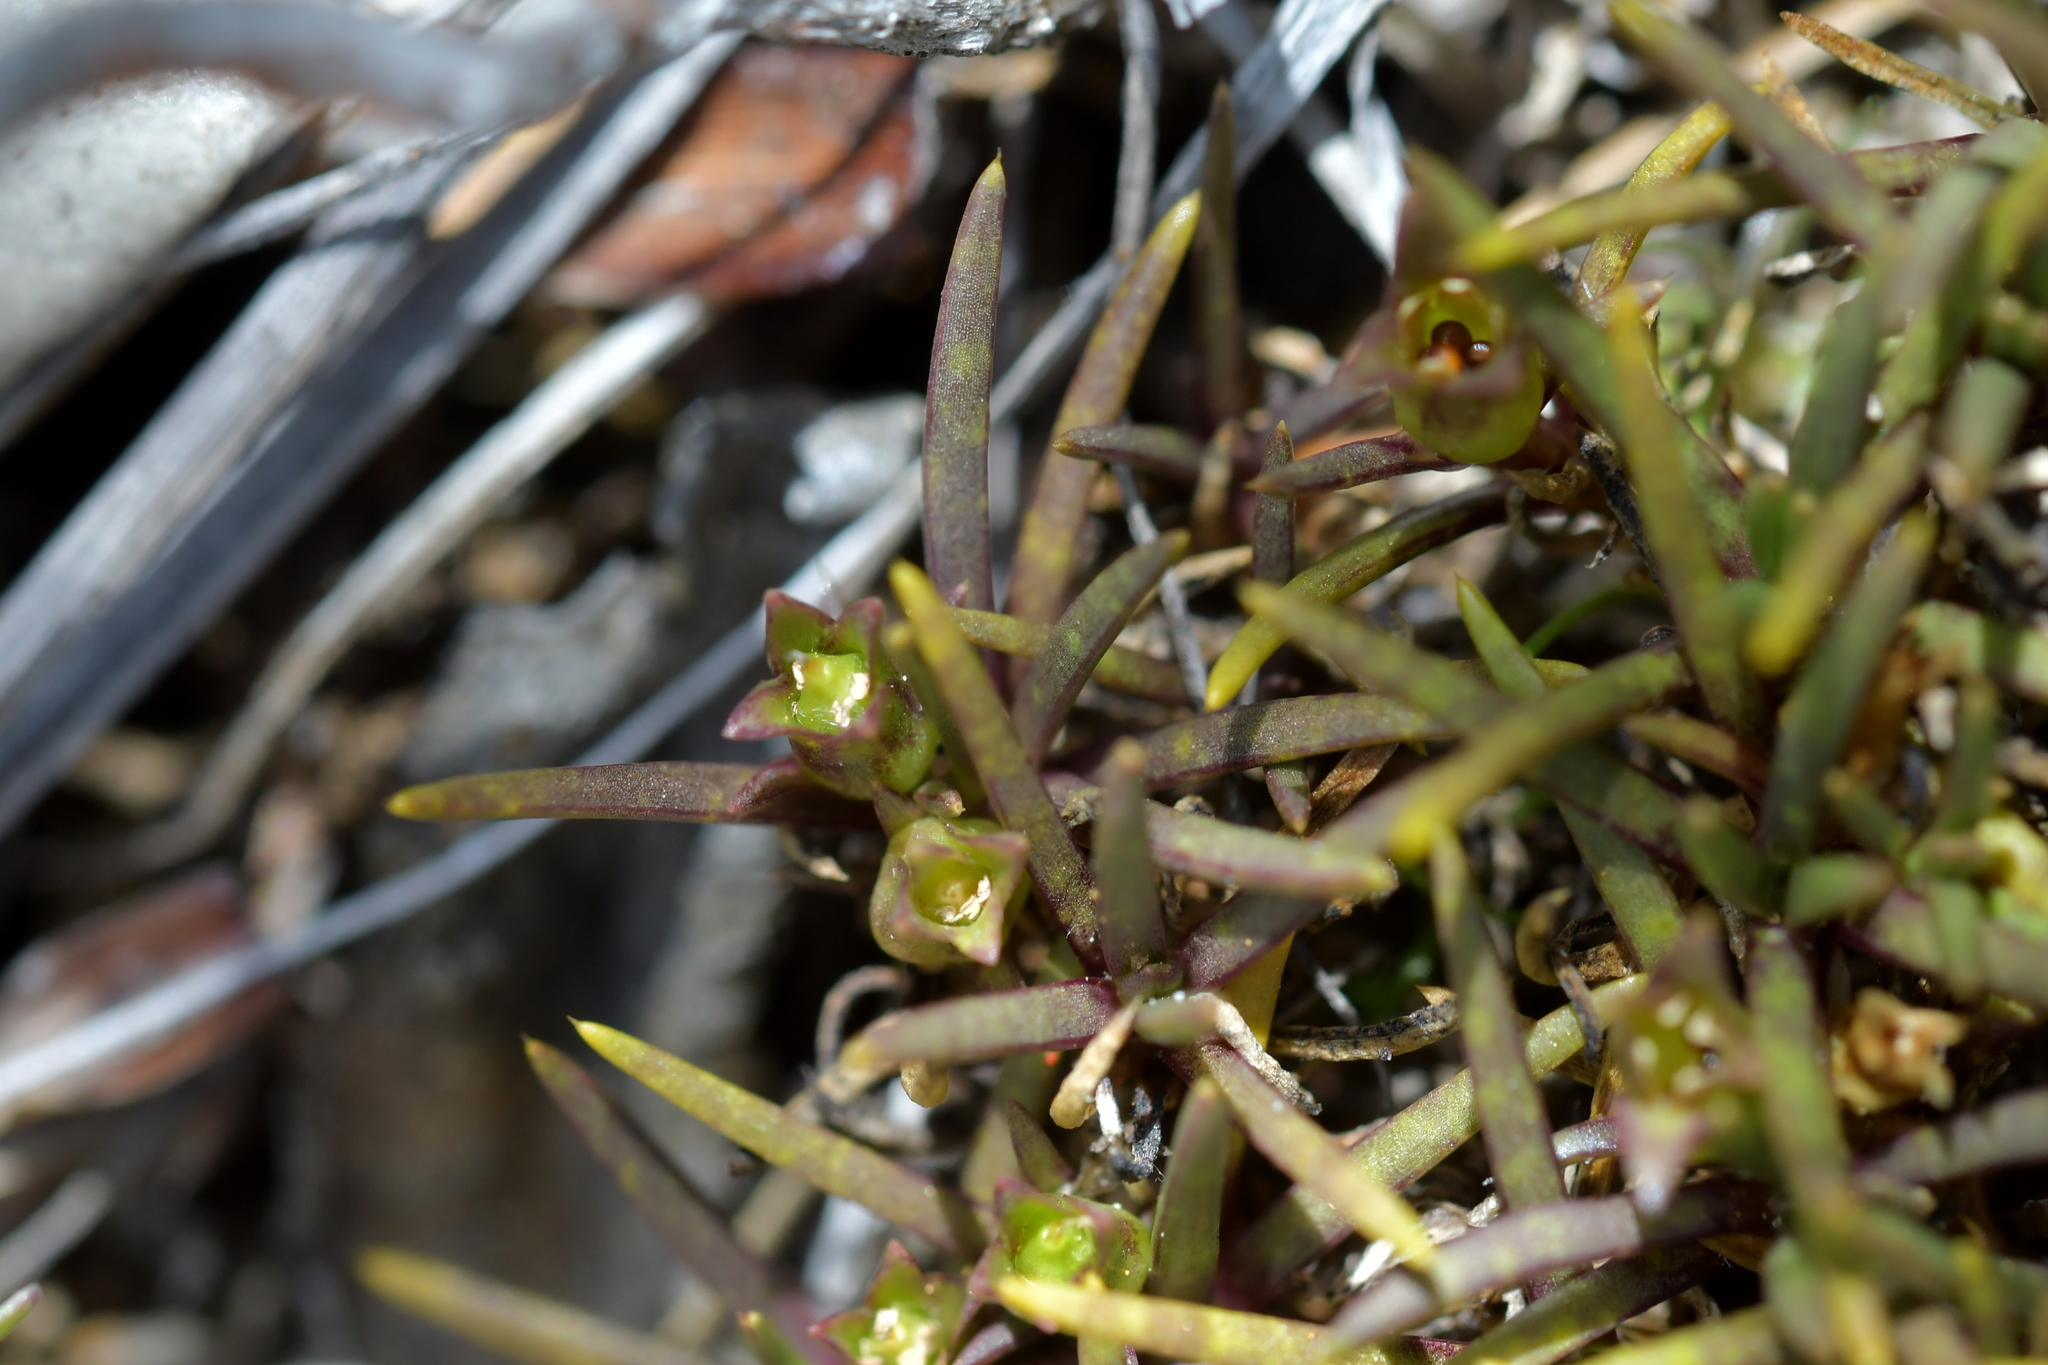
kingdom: Plantae
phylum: Tracheophyta
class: Magnoliopsida
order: Caryophyllales
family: Caryophyllaceae
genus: Colobanthus
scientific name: Colobanthus wallii
